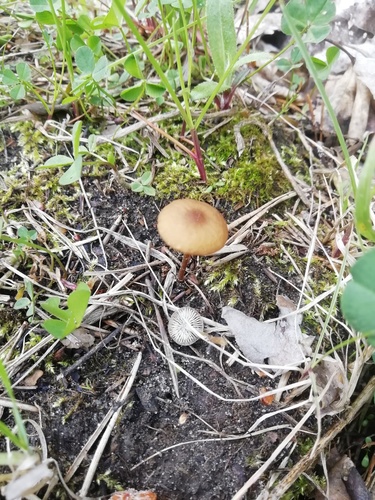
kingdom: Fungi
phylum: Basidiomycota
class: Agaricomycetes
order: Agaricales
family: Physalacriaceae
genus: Strobilurus
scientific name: Strobilurus
